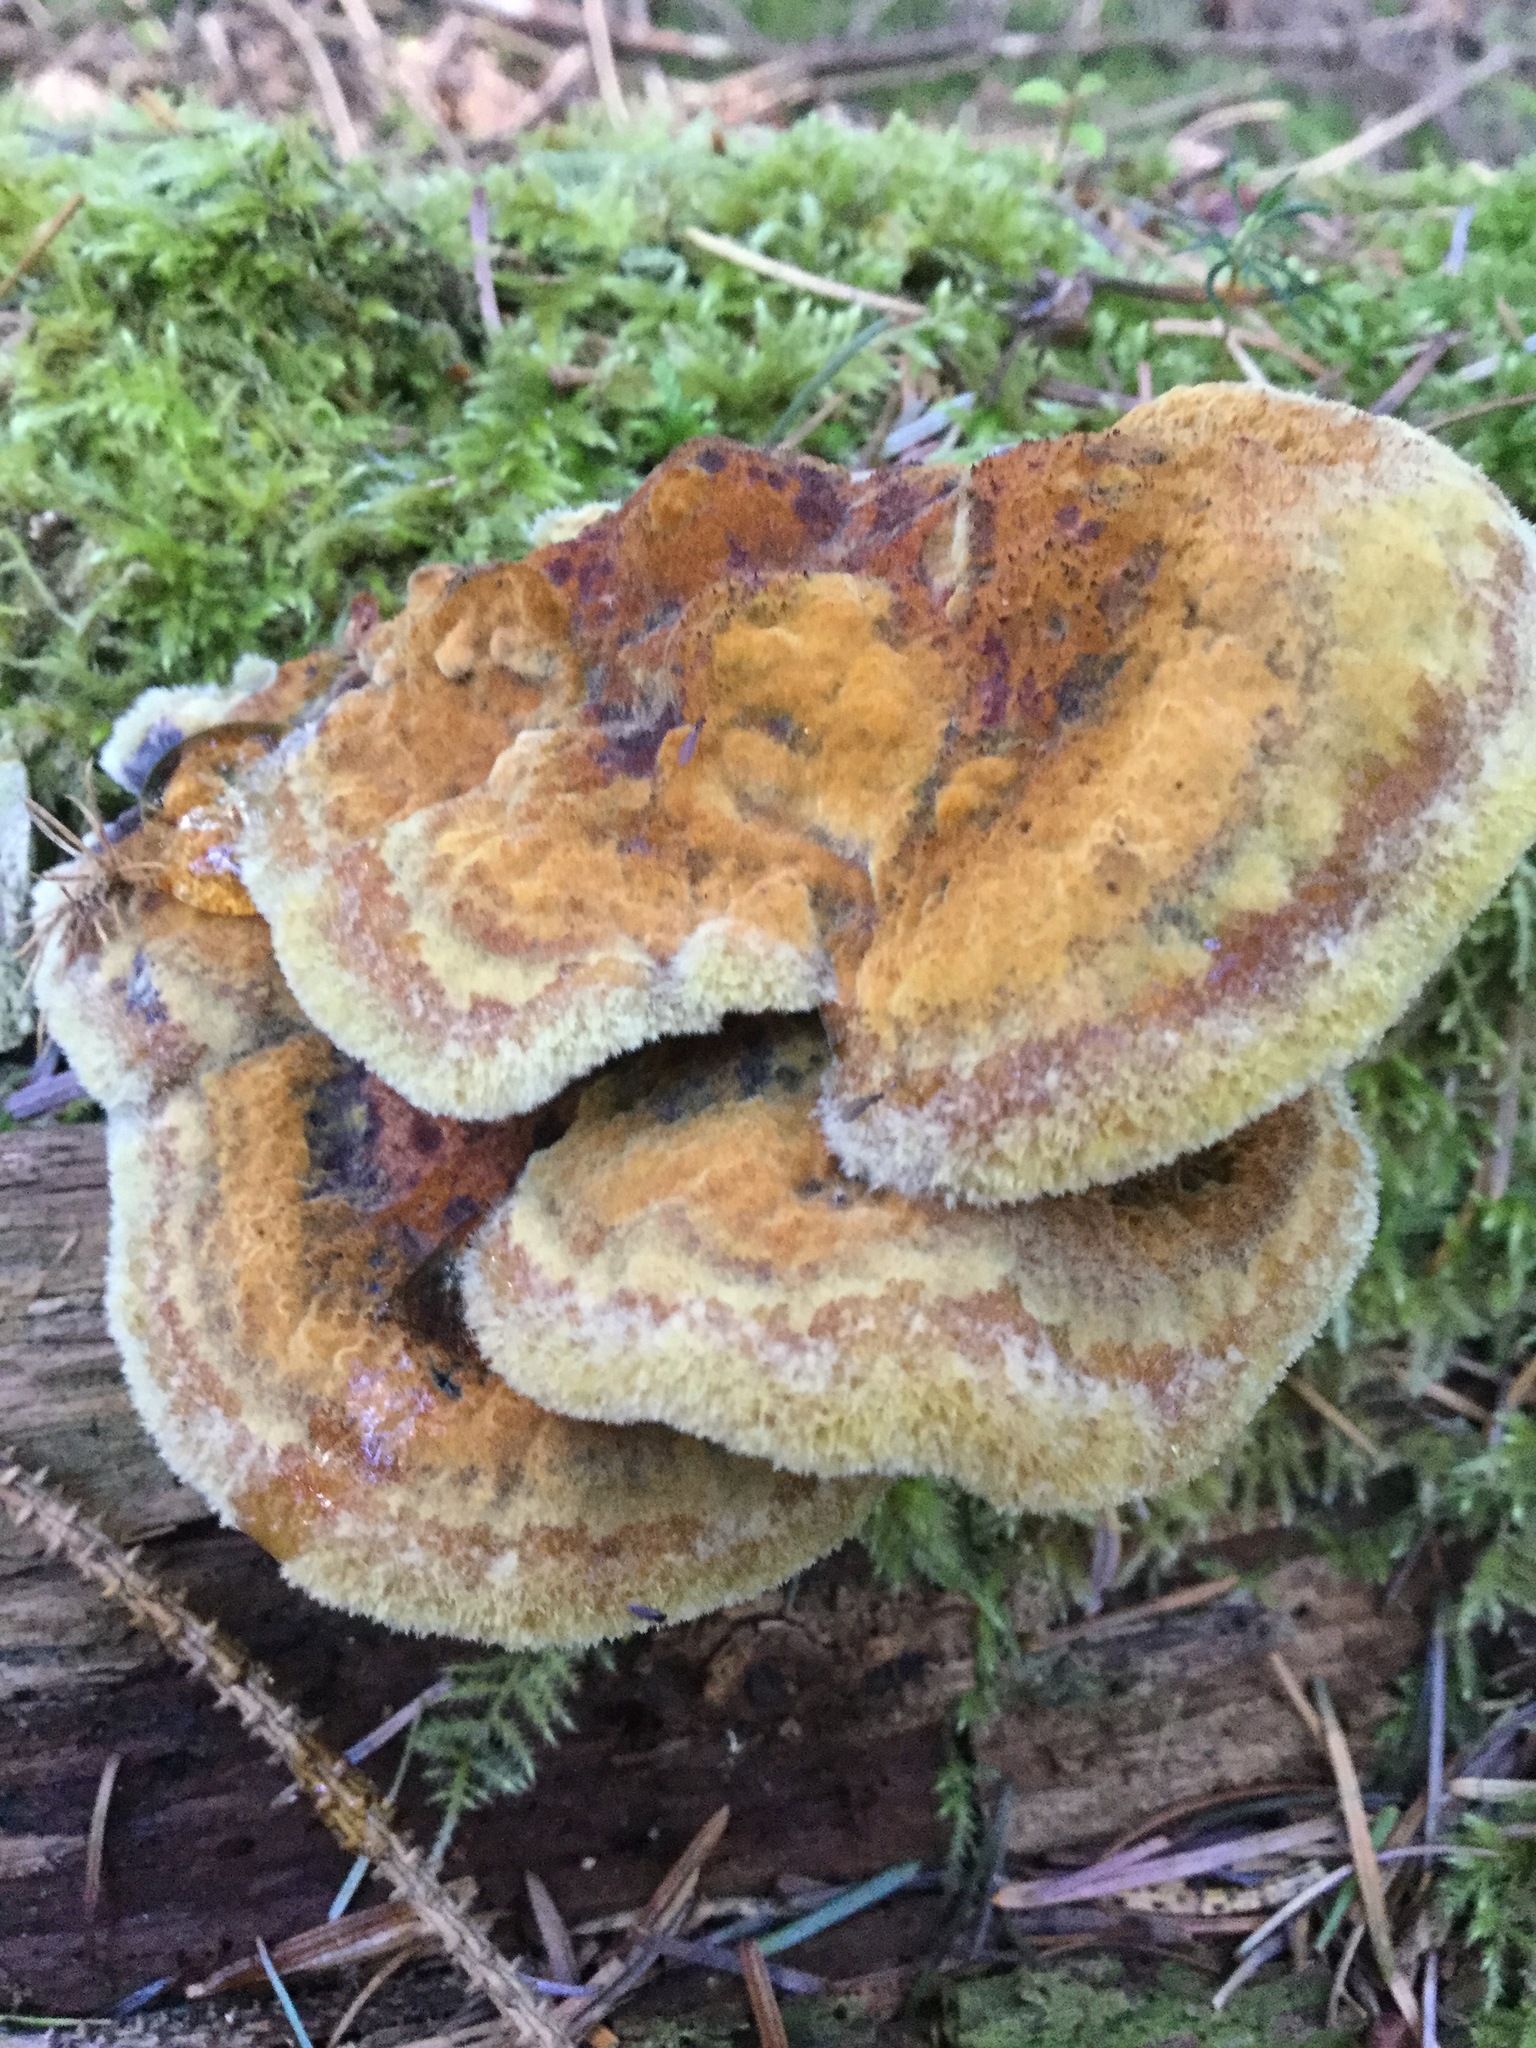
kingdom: Fungi
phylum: Basidiomycota
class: Agaricomycetes
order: Polyporales
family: Laetiporaceae
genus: Phaeolus
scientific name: Phaeolus schweinitzii
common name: Dyer's mazegill
